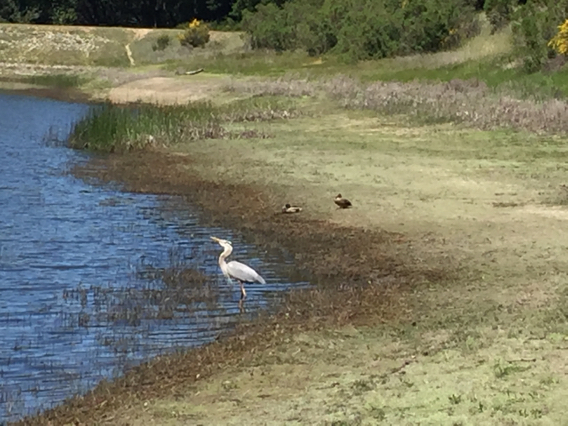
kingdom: Animalia
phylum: Chordata
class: Aves
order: Pelecaniformes
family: Ardeidae
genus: Ardea
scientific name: Ardea herodias
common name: Great blue heron
